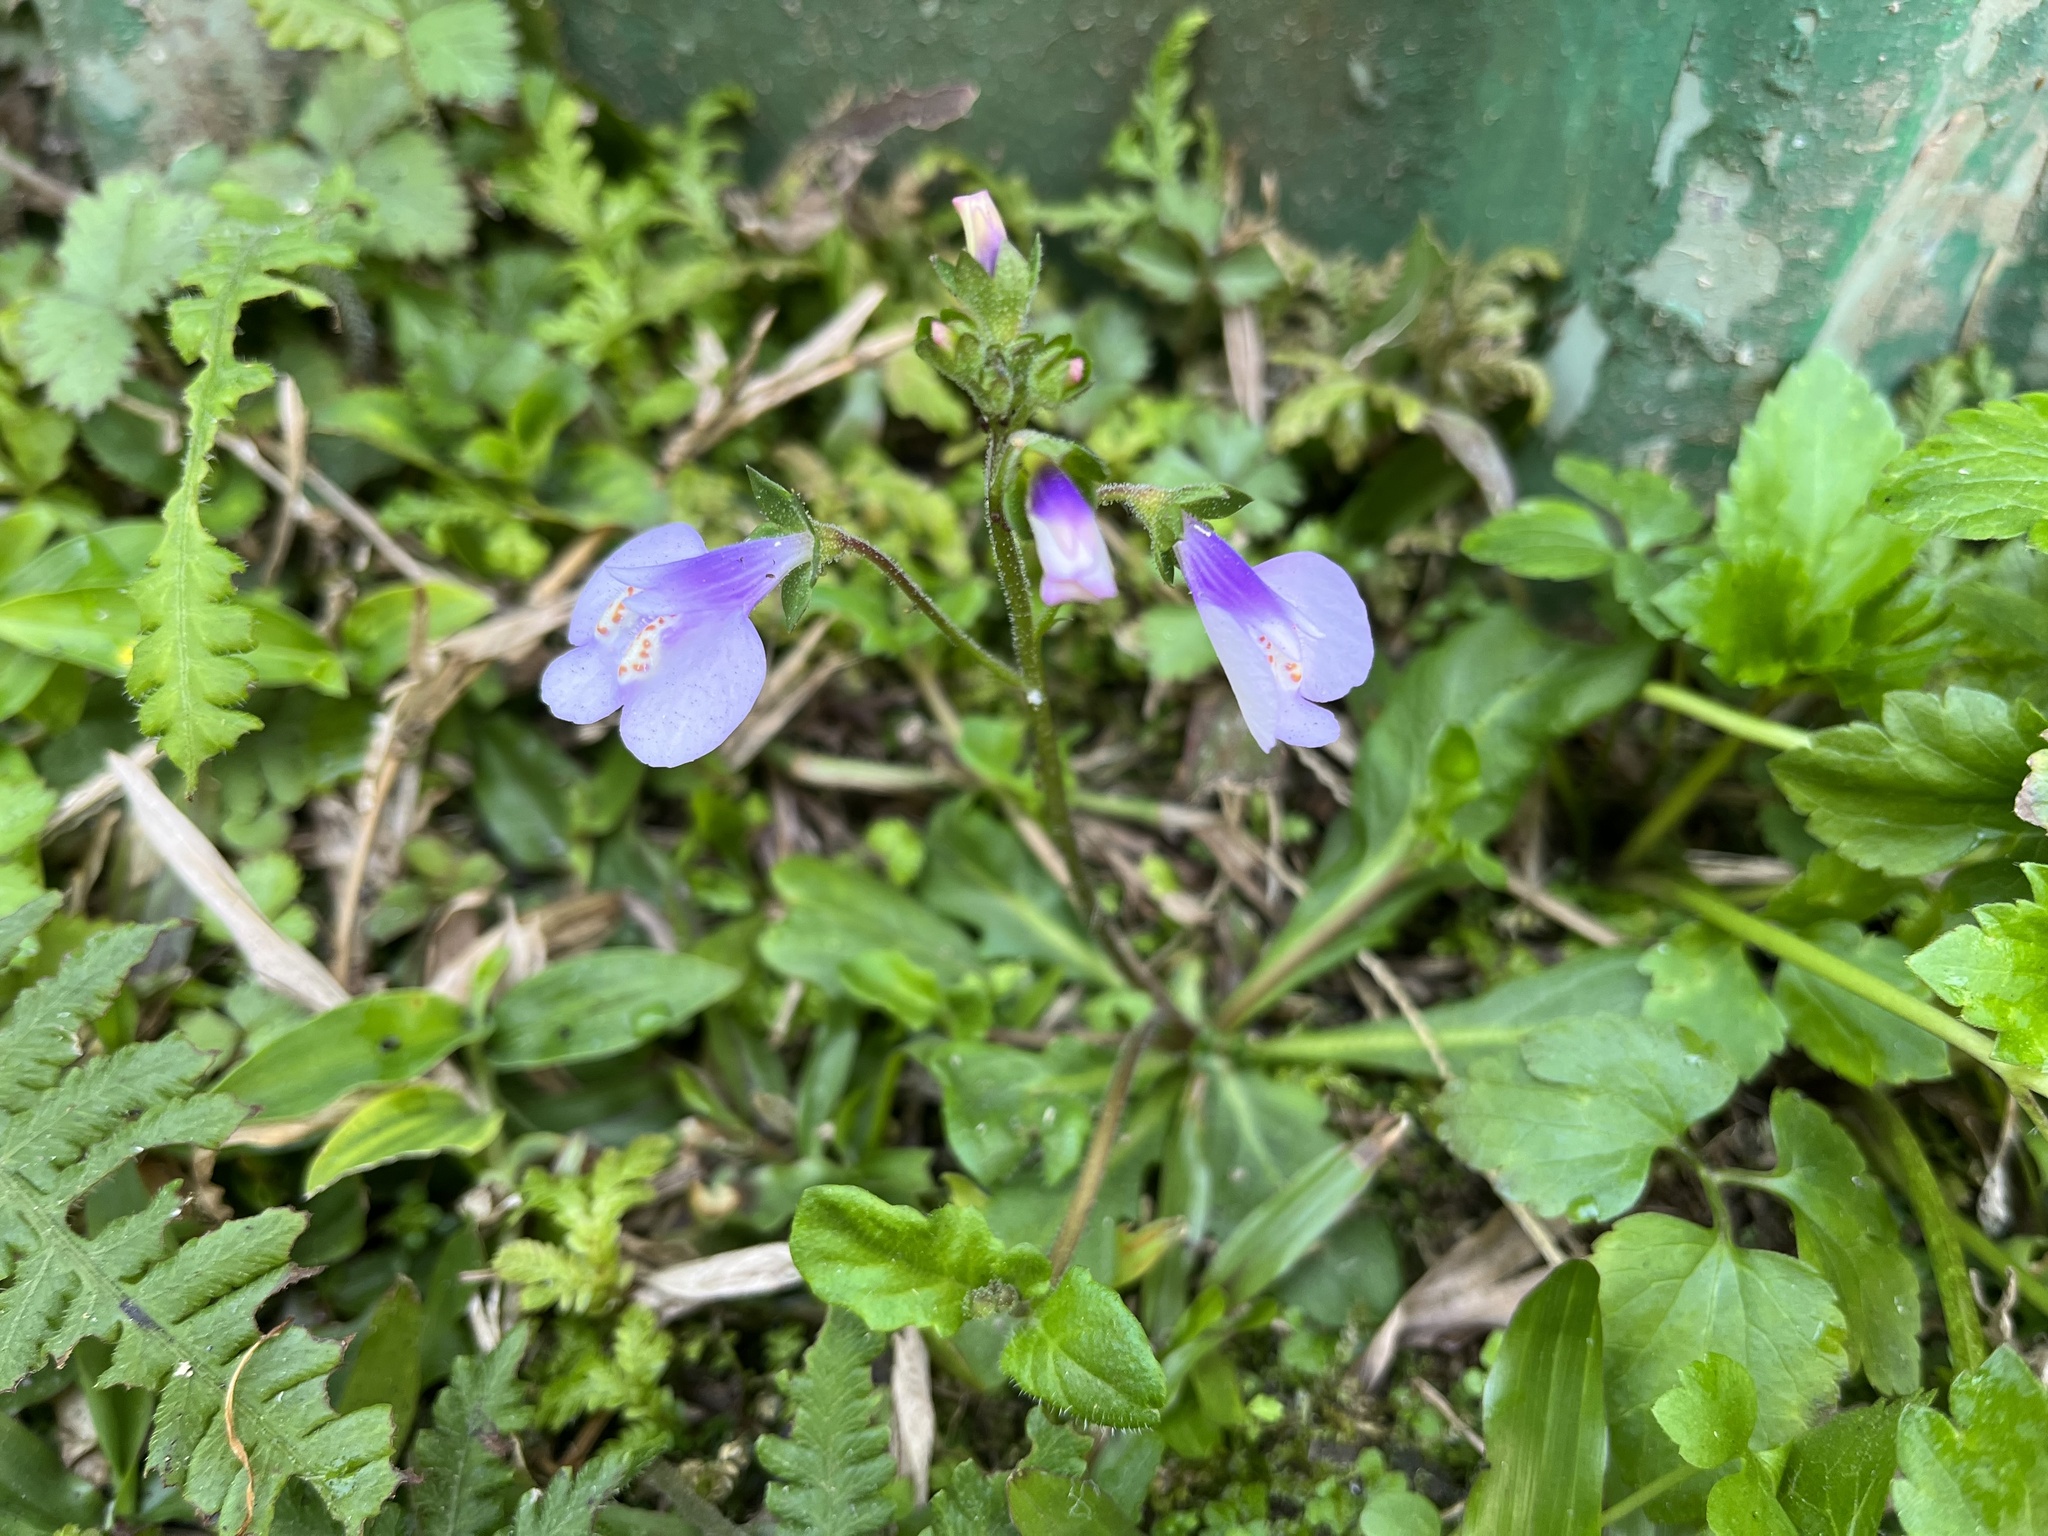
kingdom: Plantae
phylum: Tracheophyta
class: Magnoliopsida
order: Lamiales
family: Mazaceae
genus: Mazus
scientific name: Mazus fauriei
